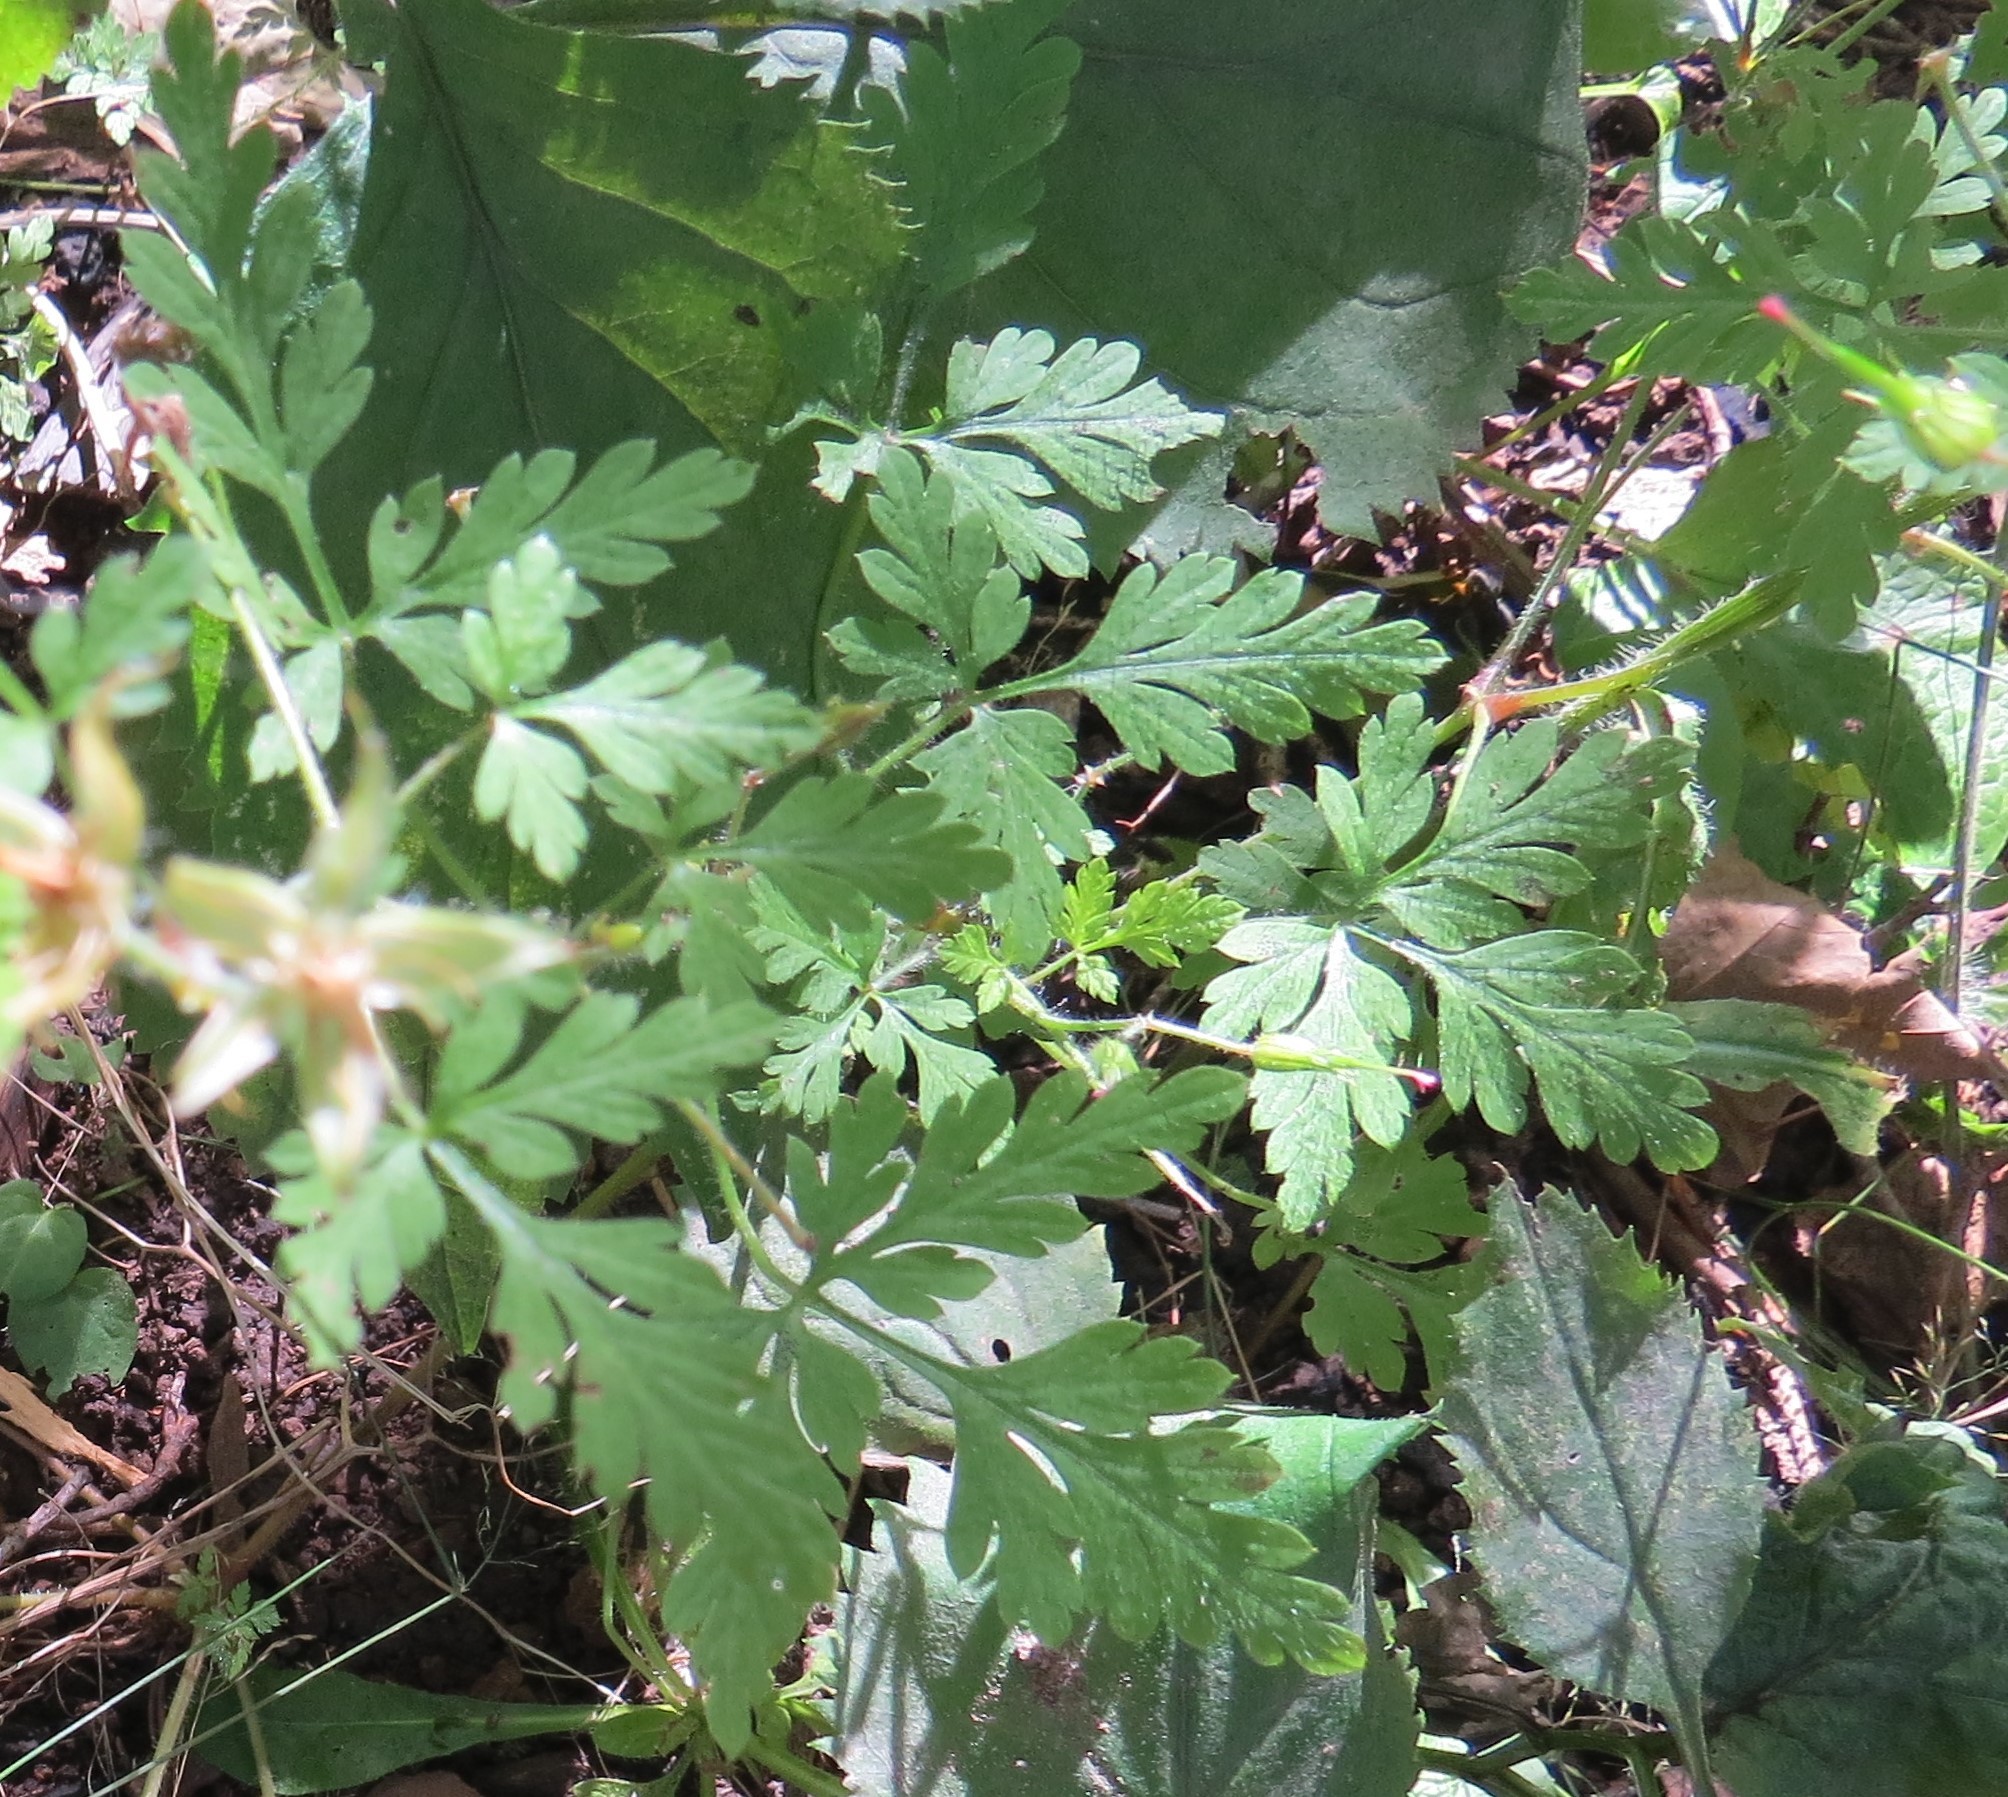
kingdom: Plantae
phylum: Tracheophyta
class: Magnoliopsida
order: Geraniales
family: Geraniaceae
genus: Geranium
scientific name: Geranium robertianum
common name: Herb-robert
